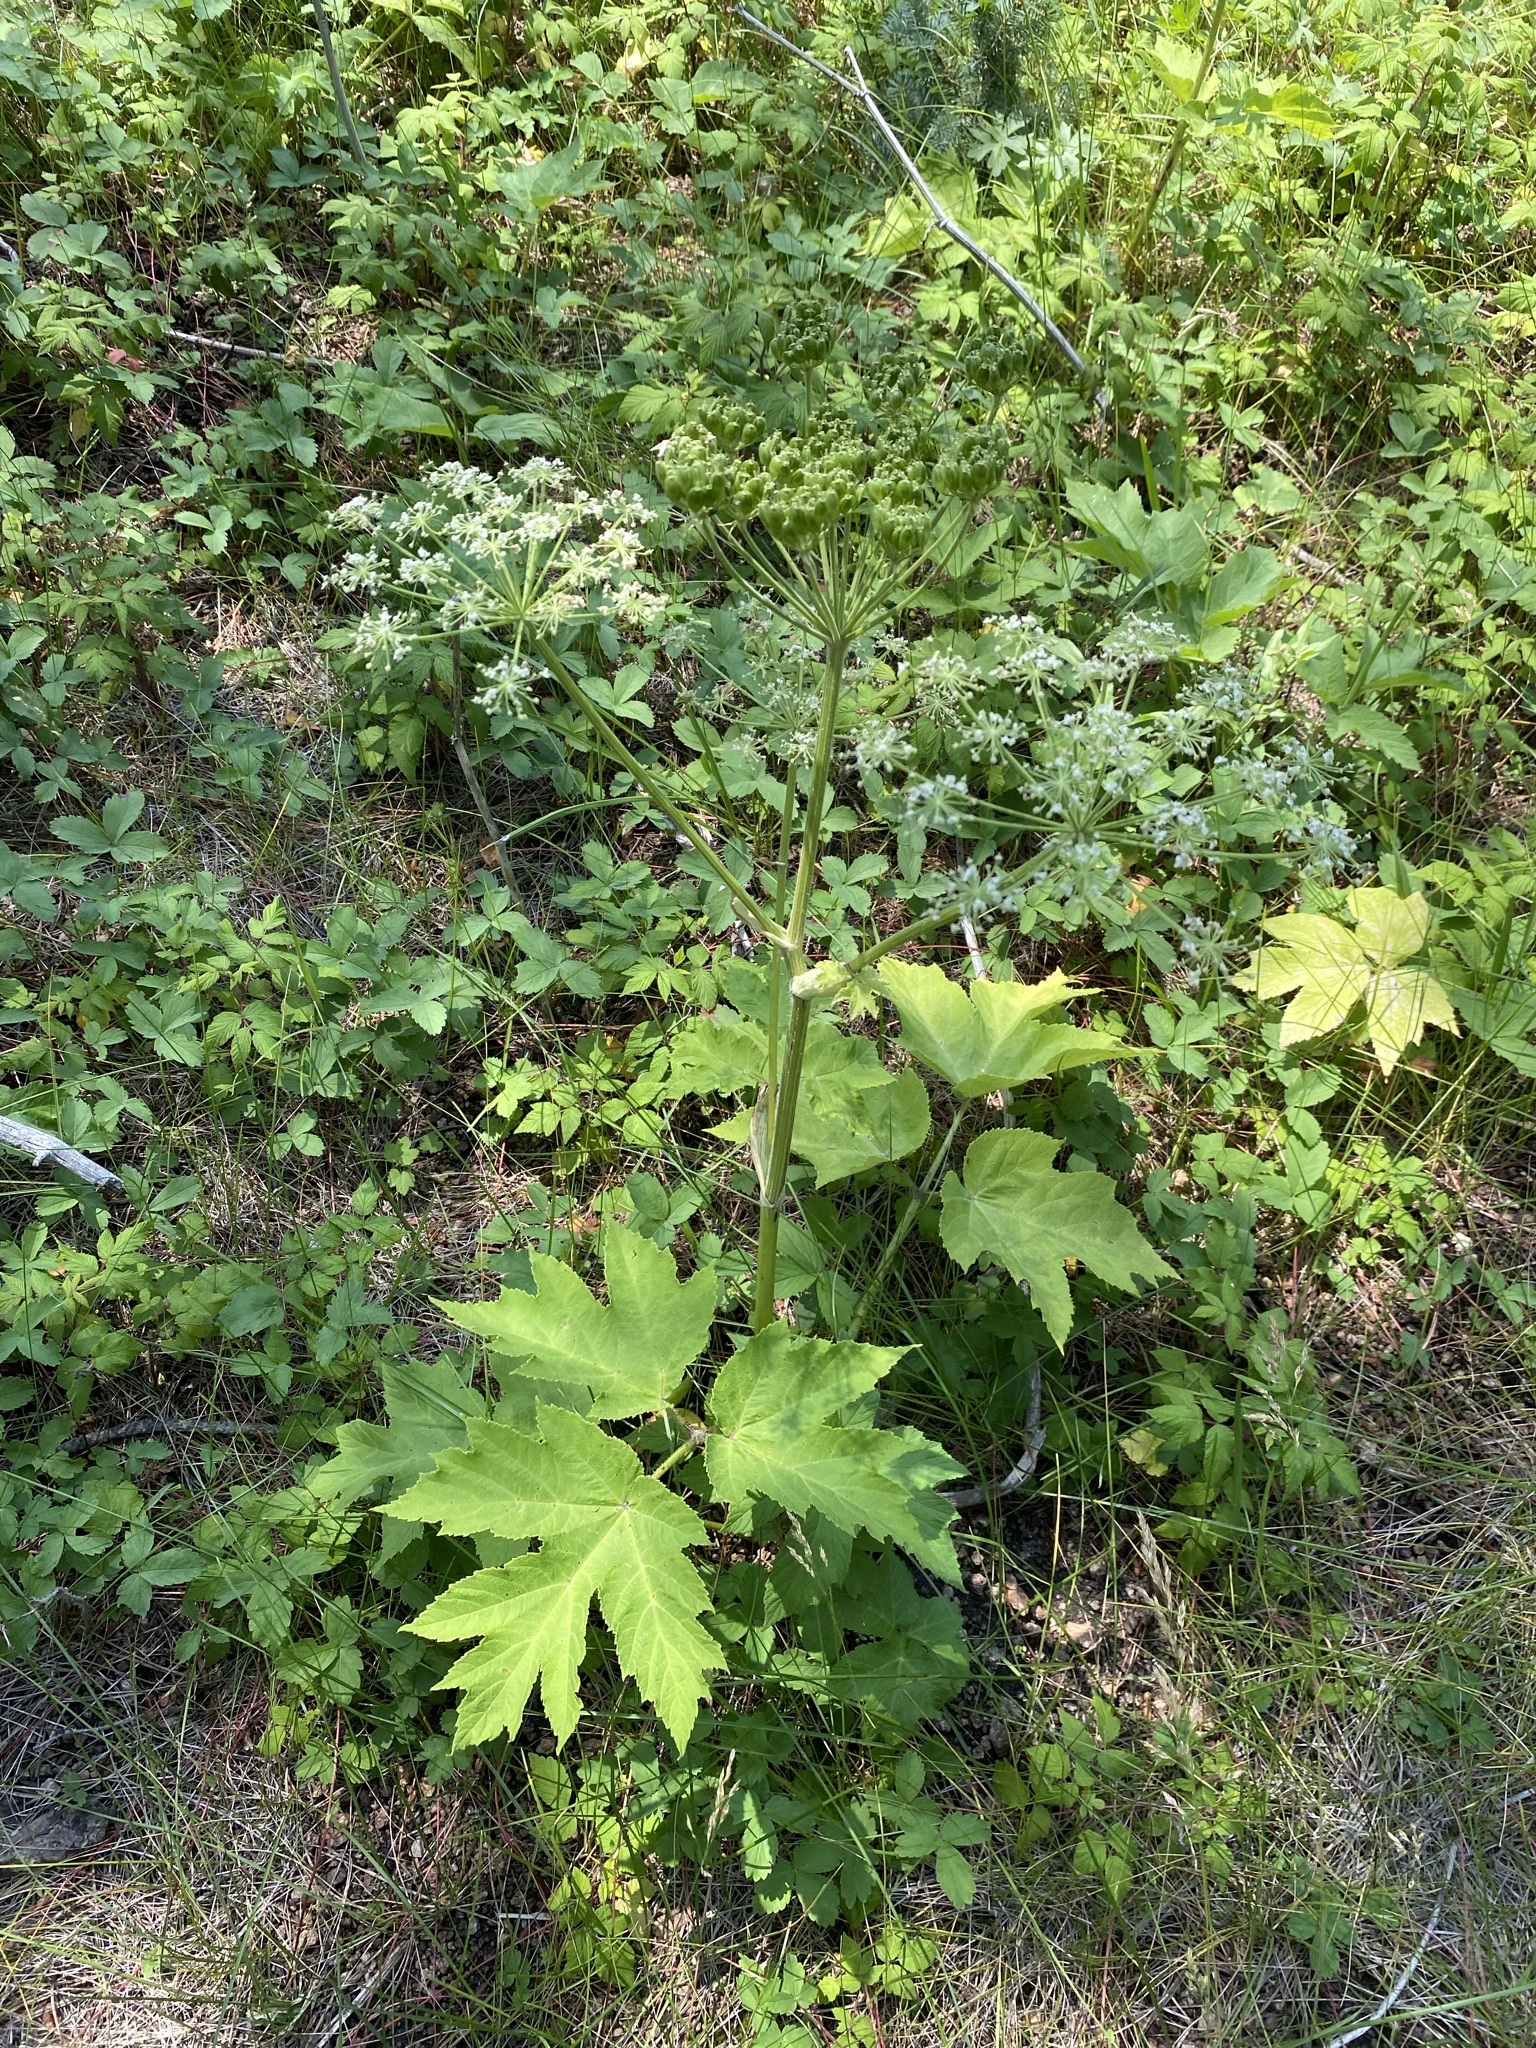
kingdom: Plantae
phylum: Tracheophyta
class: Magnoliopsida
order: Apiales
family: Apiaceae
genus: Heracleum
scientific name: Heracleum maximum
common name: American cow parsnip
